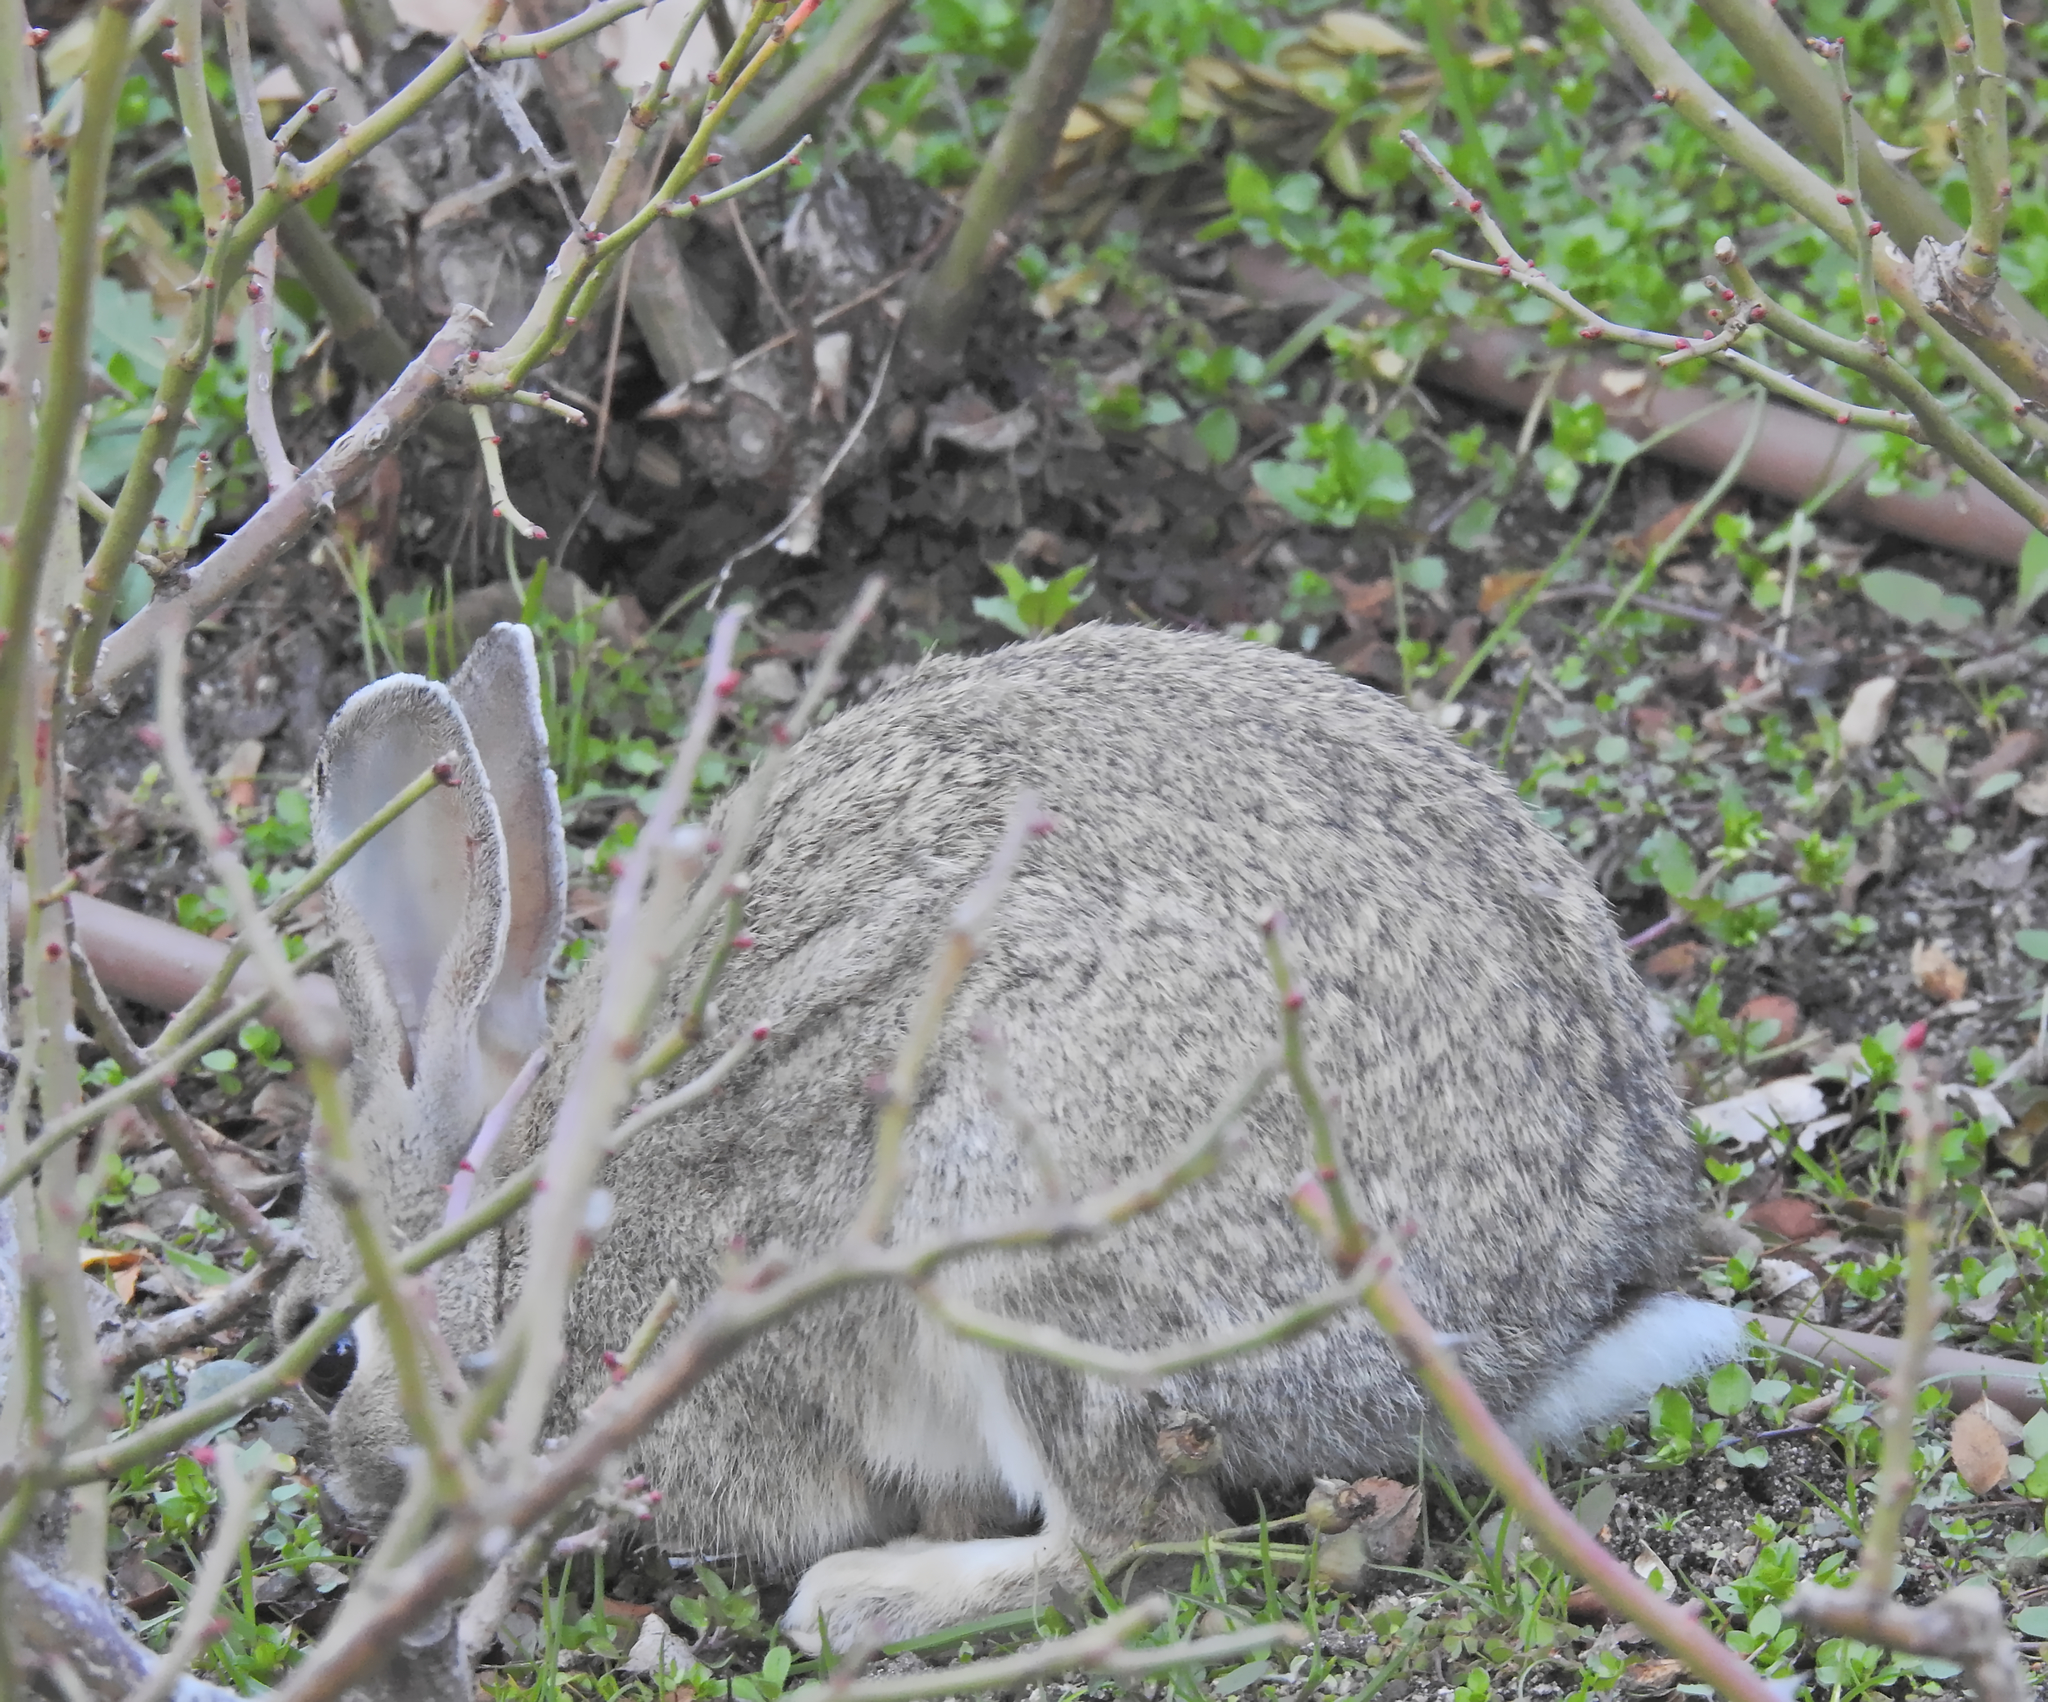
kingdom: Animalia
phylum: Chordata
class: Mammalia
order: Lagomorpha
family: Leporidae
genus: Oryctolagus
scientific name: Oryctolagus cuniculus
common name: European rabbit
